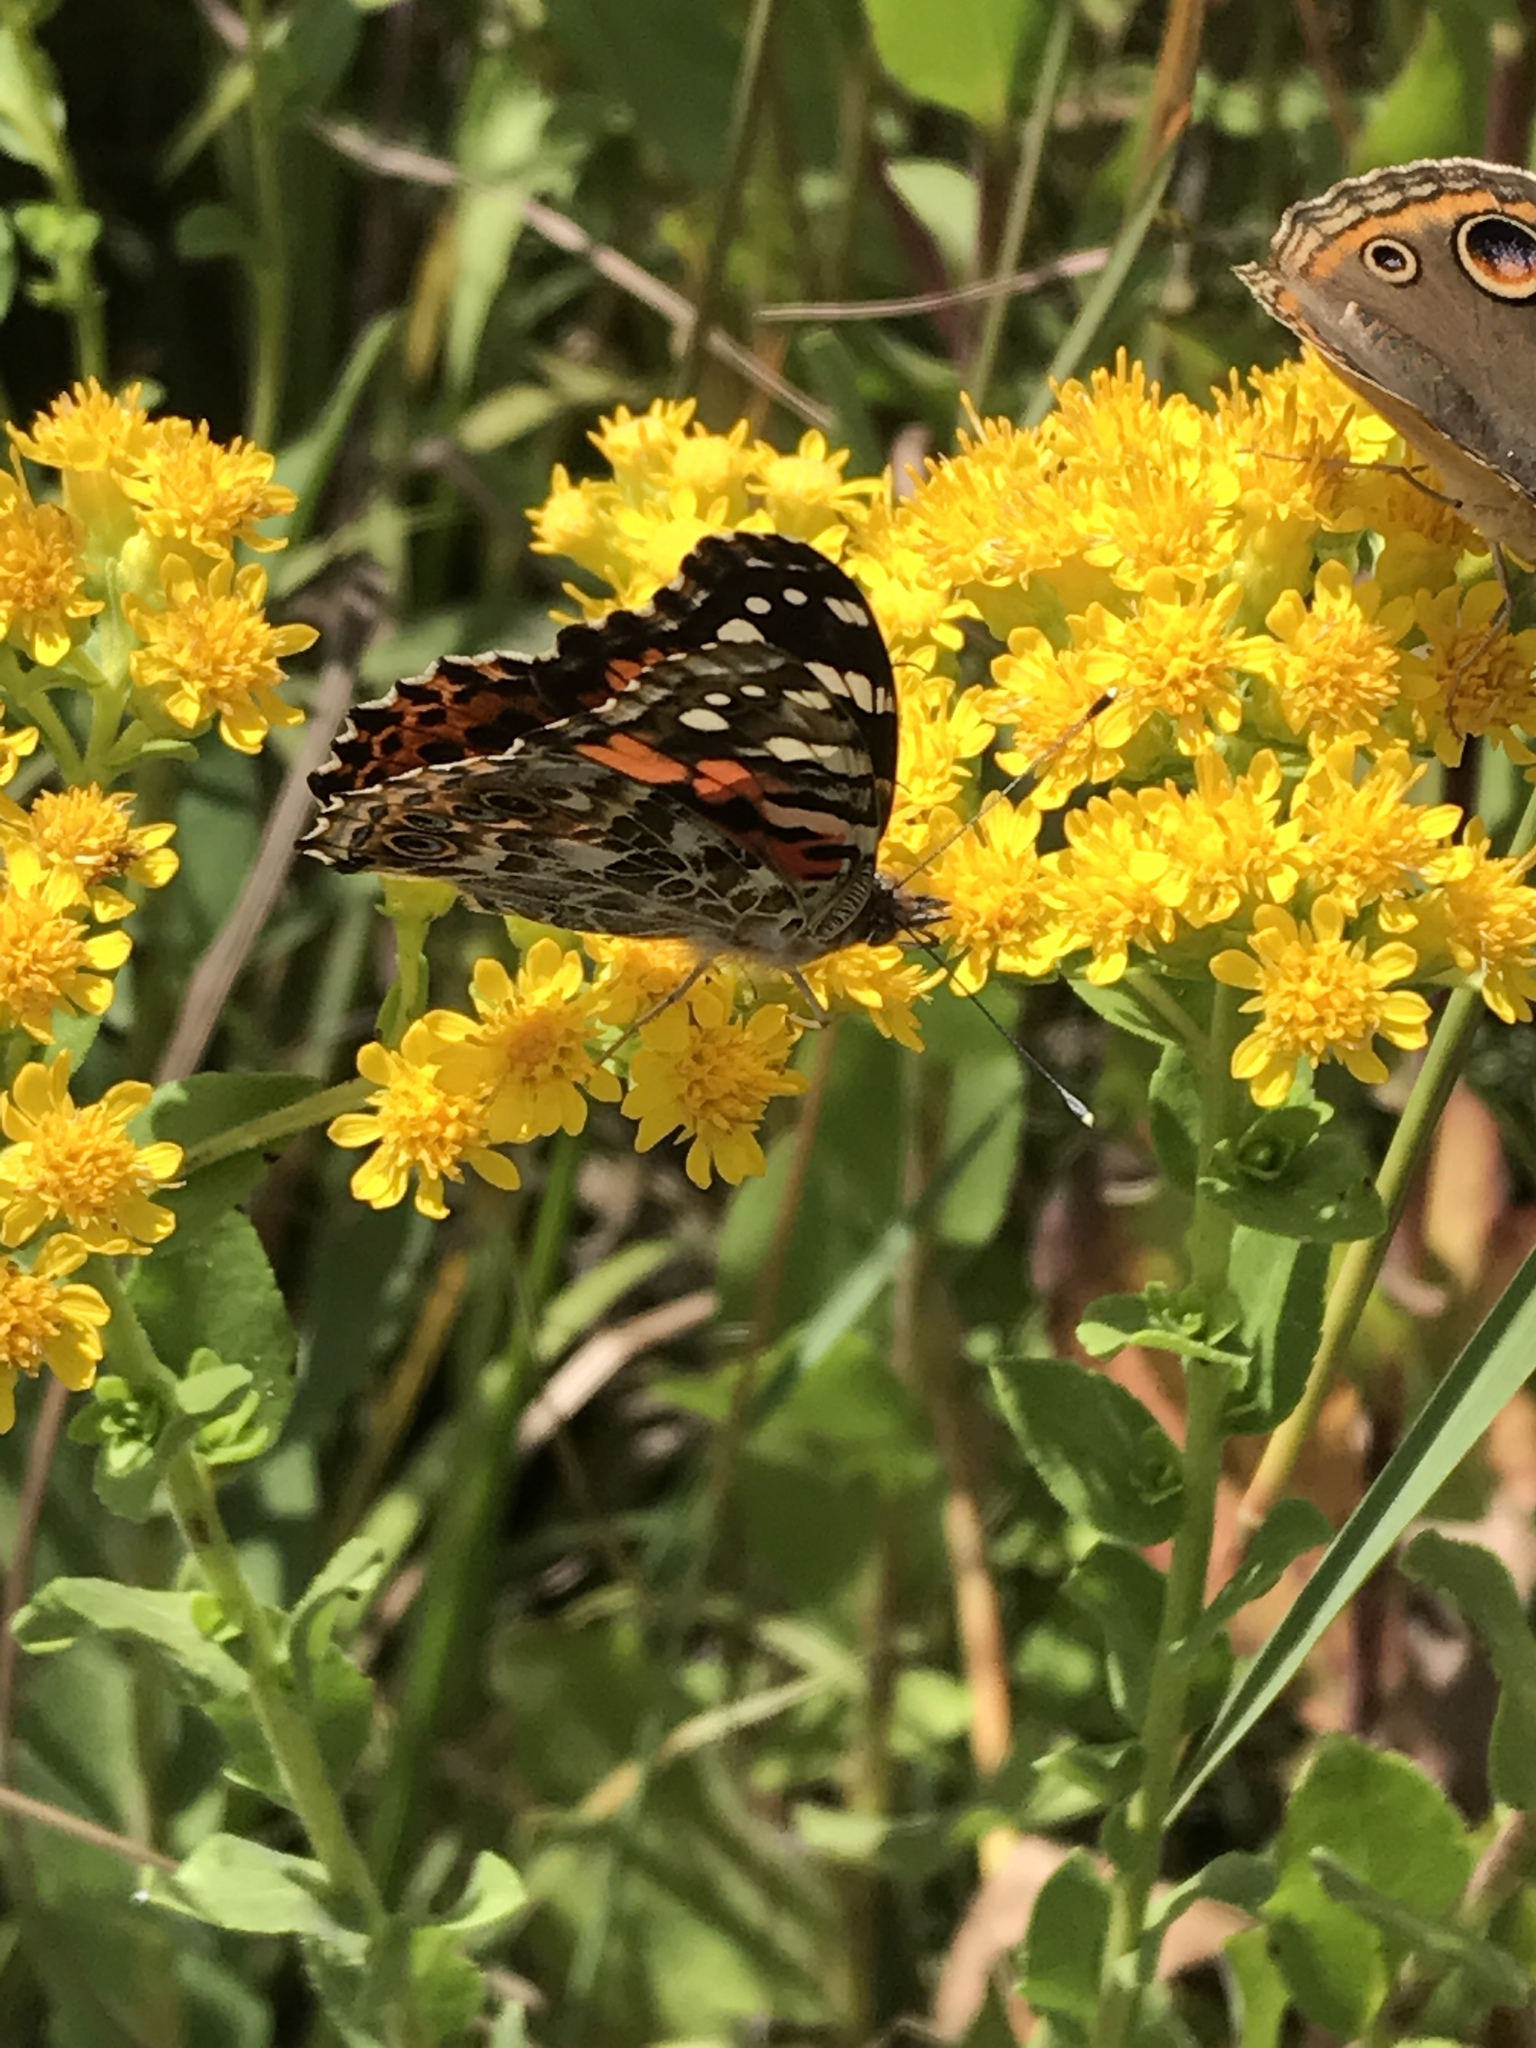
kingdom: Animalia
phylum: Arthropoda
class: Insecta
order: Lepidoptera
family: Nymphalidae
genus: Vanessa
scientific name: Vanessa cardui
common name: Painted lady
